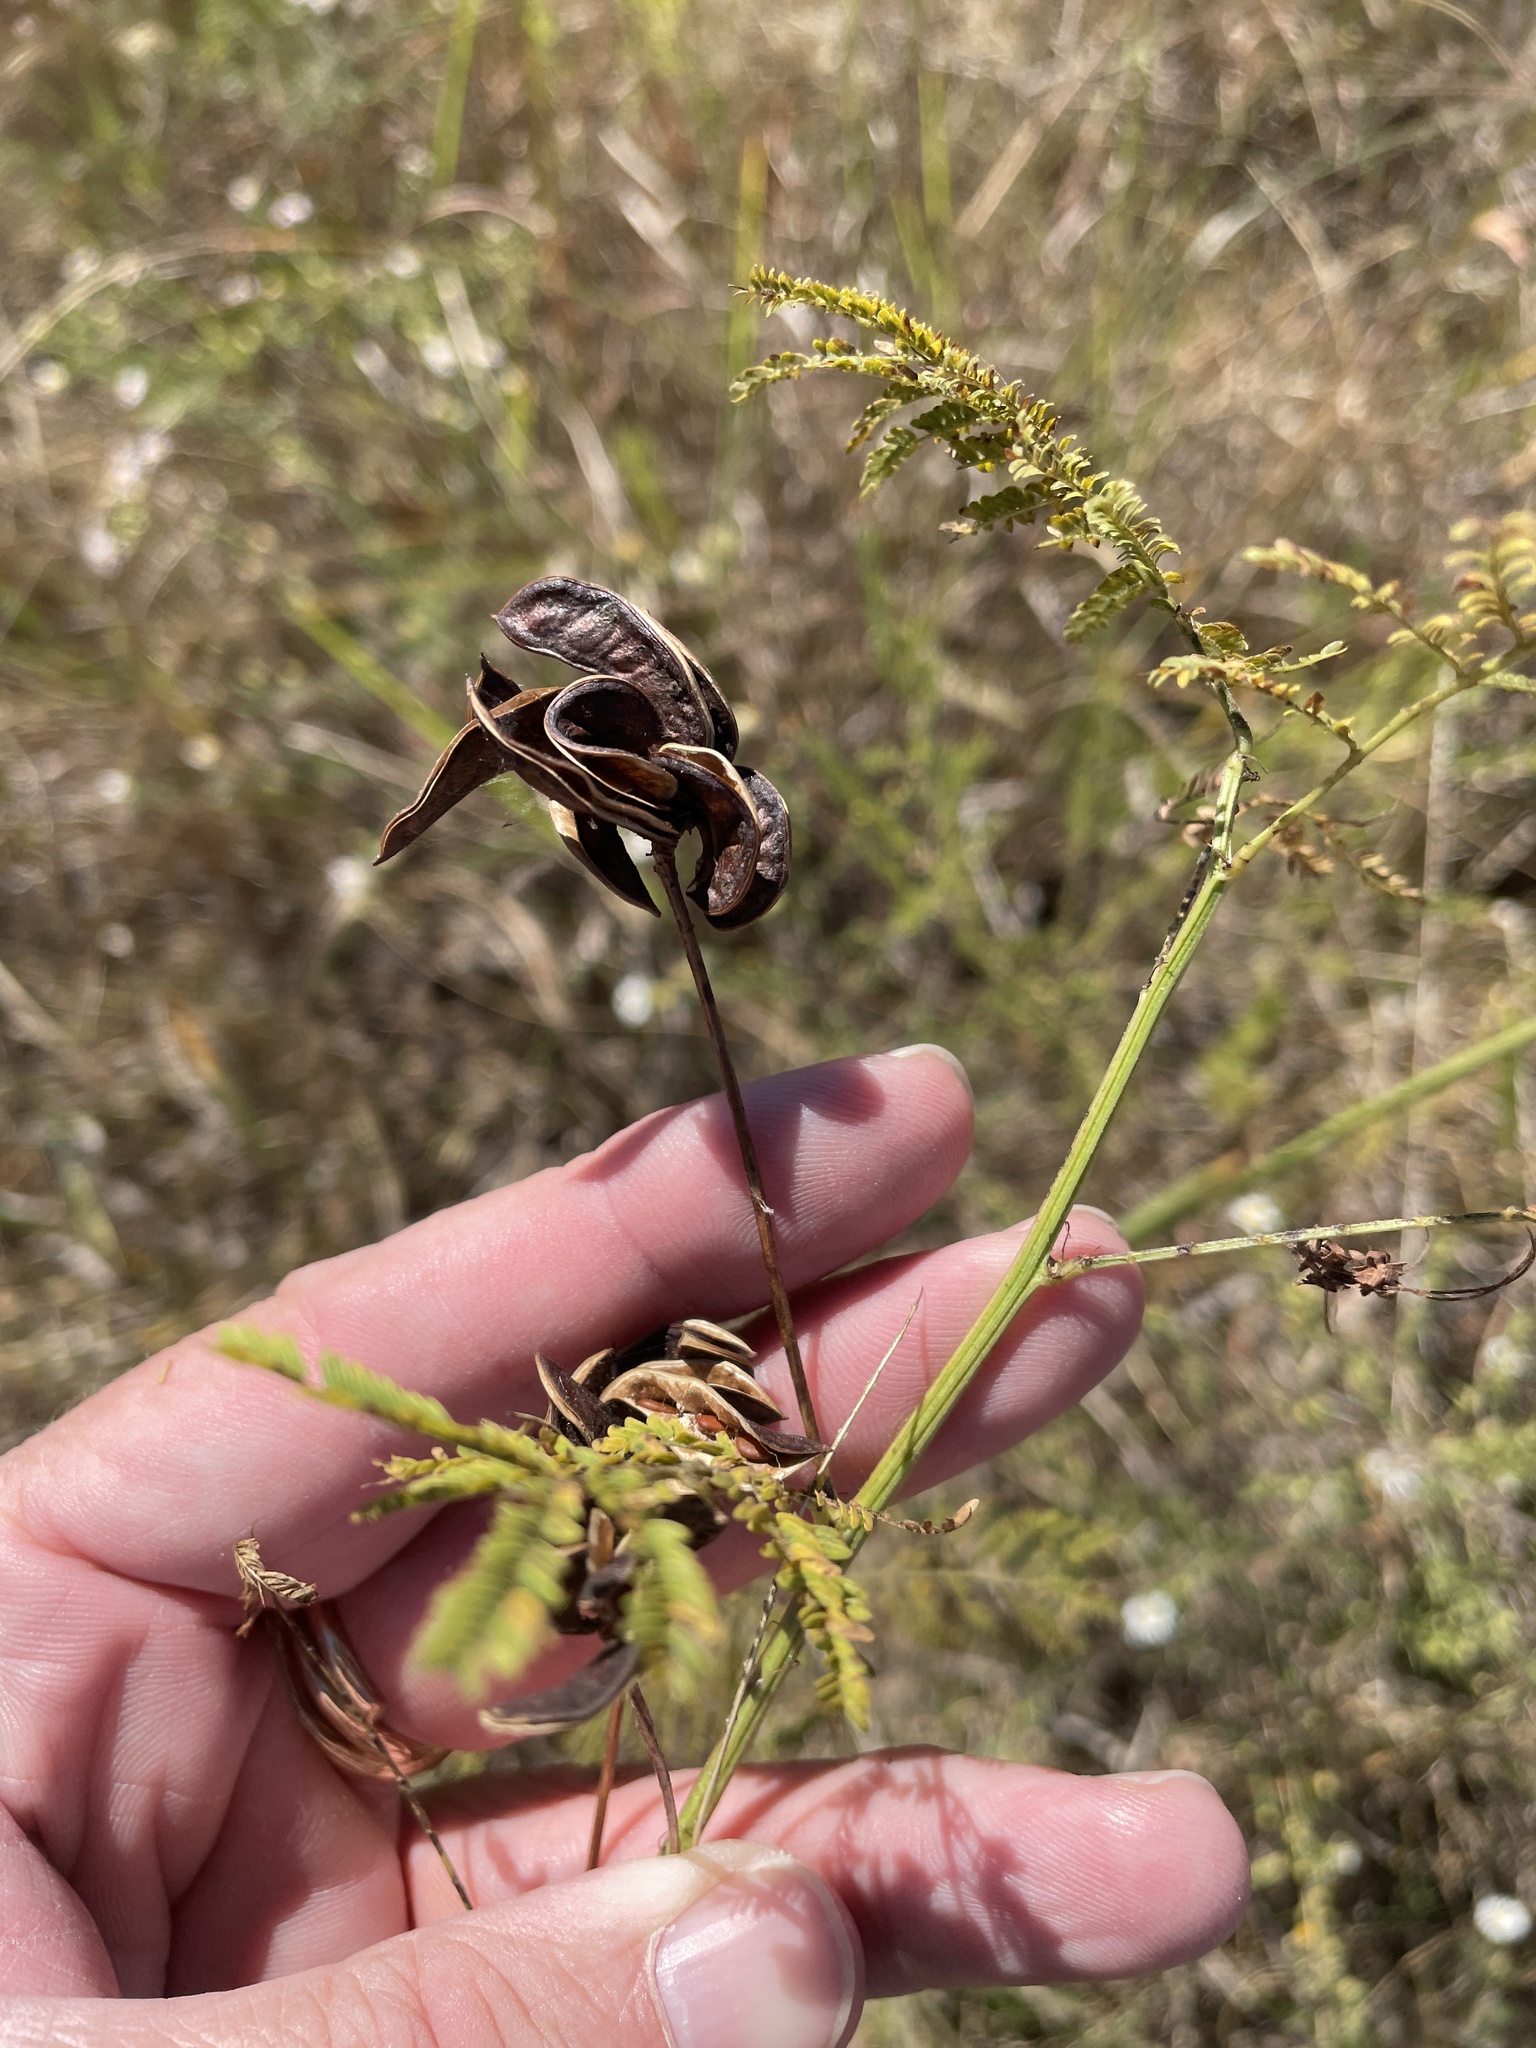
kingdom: Plantae
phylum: Tracheophyta
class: Magnoliopsida
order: Fabales
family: Fabaceae
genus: Desmanthus
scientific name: Desmanthus illinoensis
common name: Illinois bundle-flower
